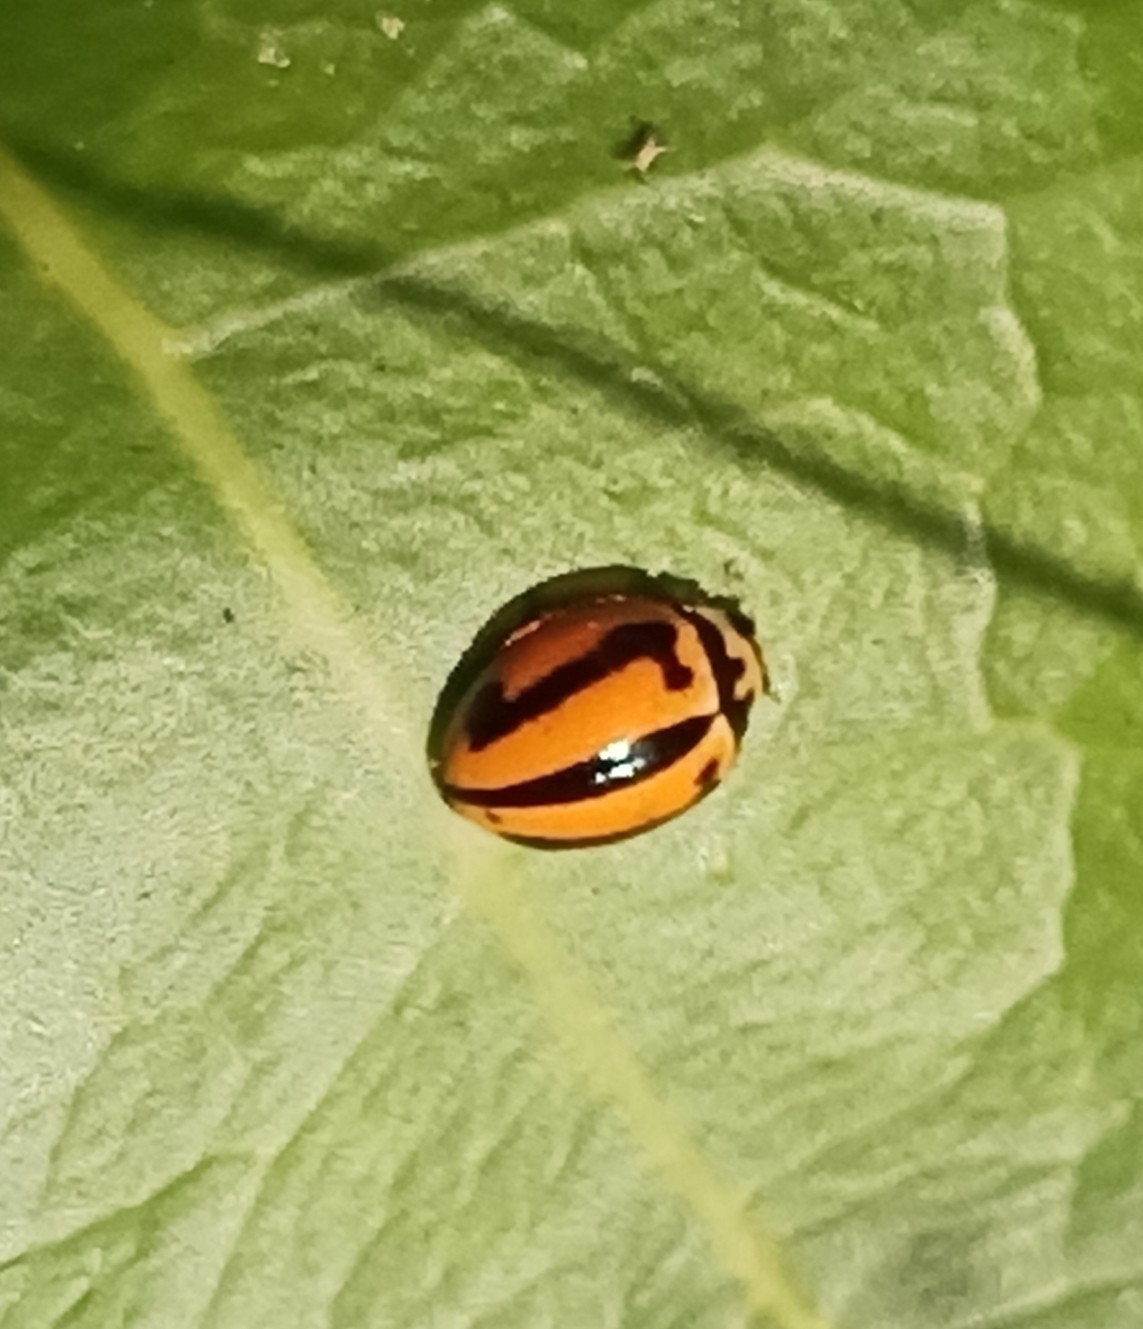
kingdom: Animalia
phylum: Arthropoda
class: Insecta
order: Coleoptera
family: Coccinellidae
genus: Micraspis
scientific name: Micraspis frenata
